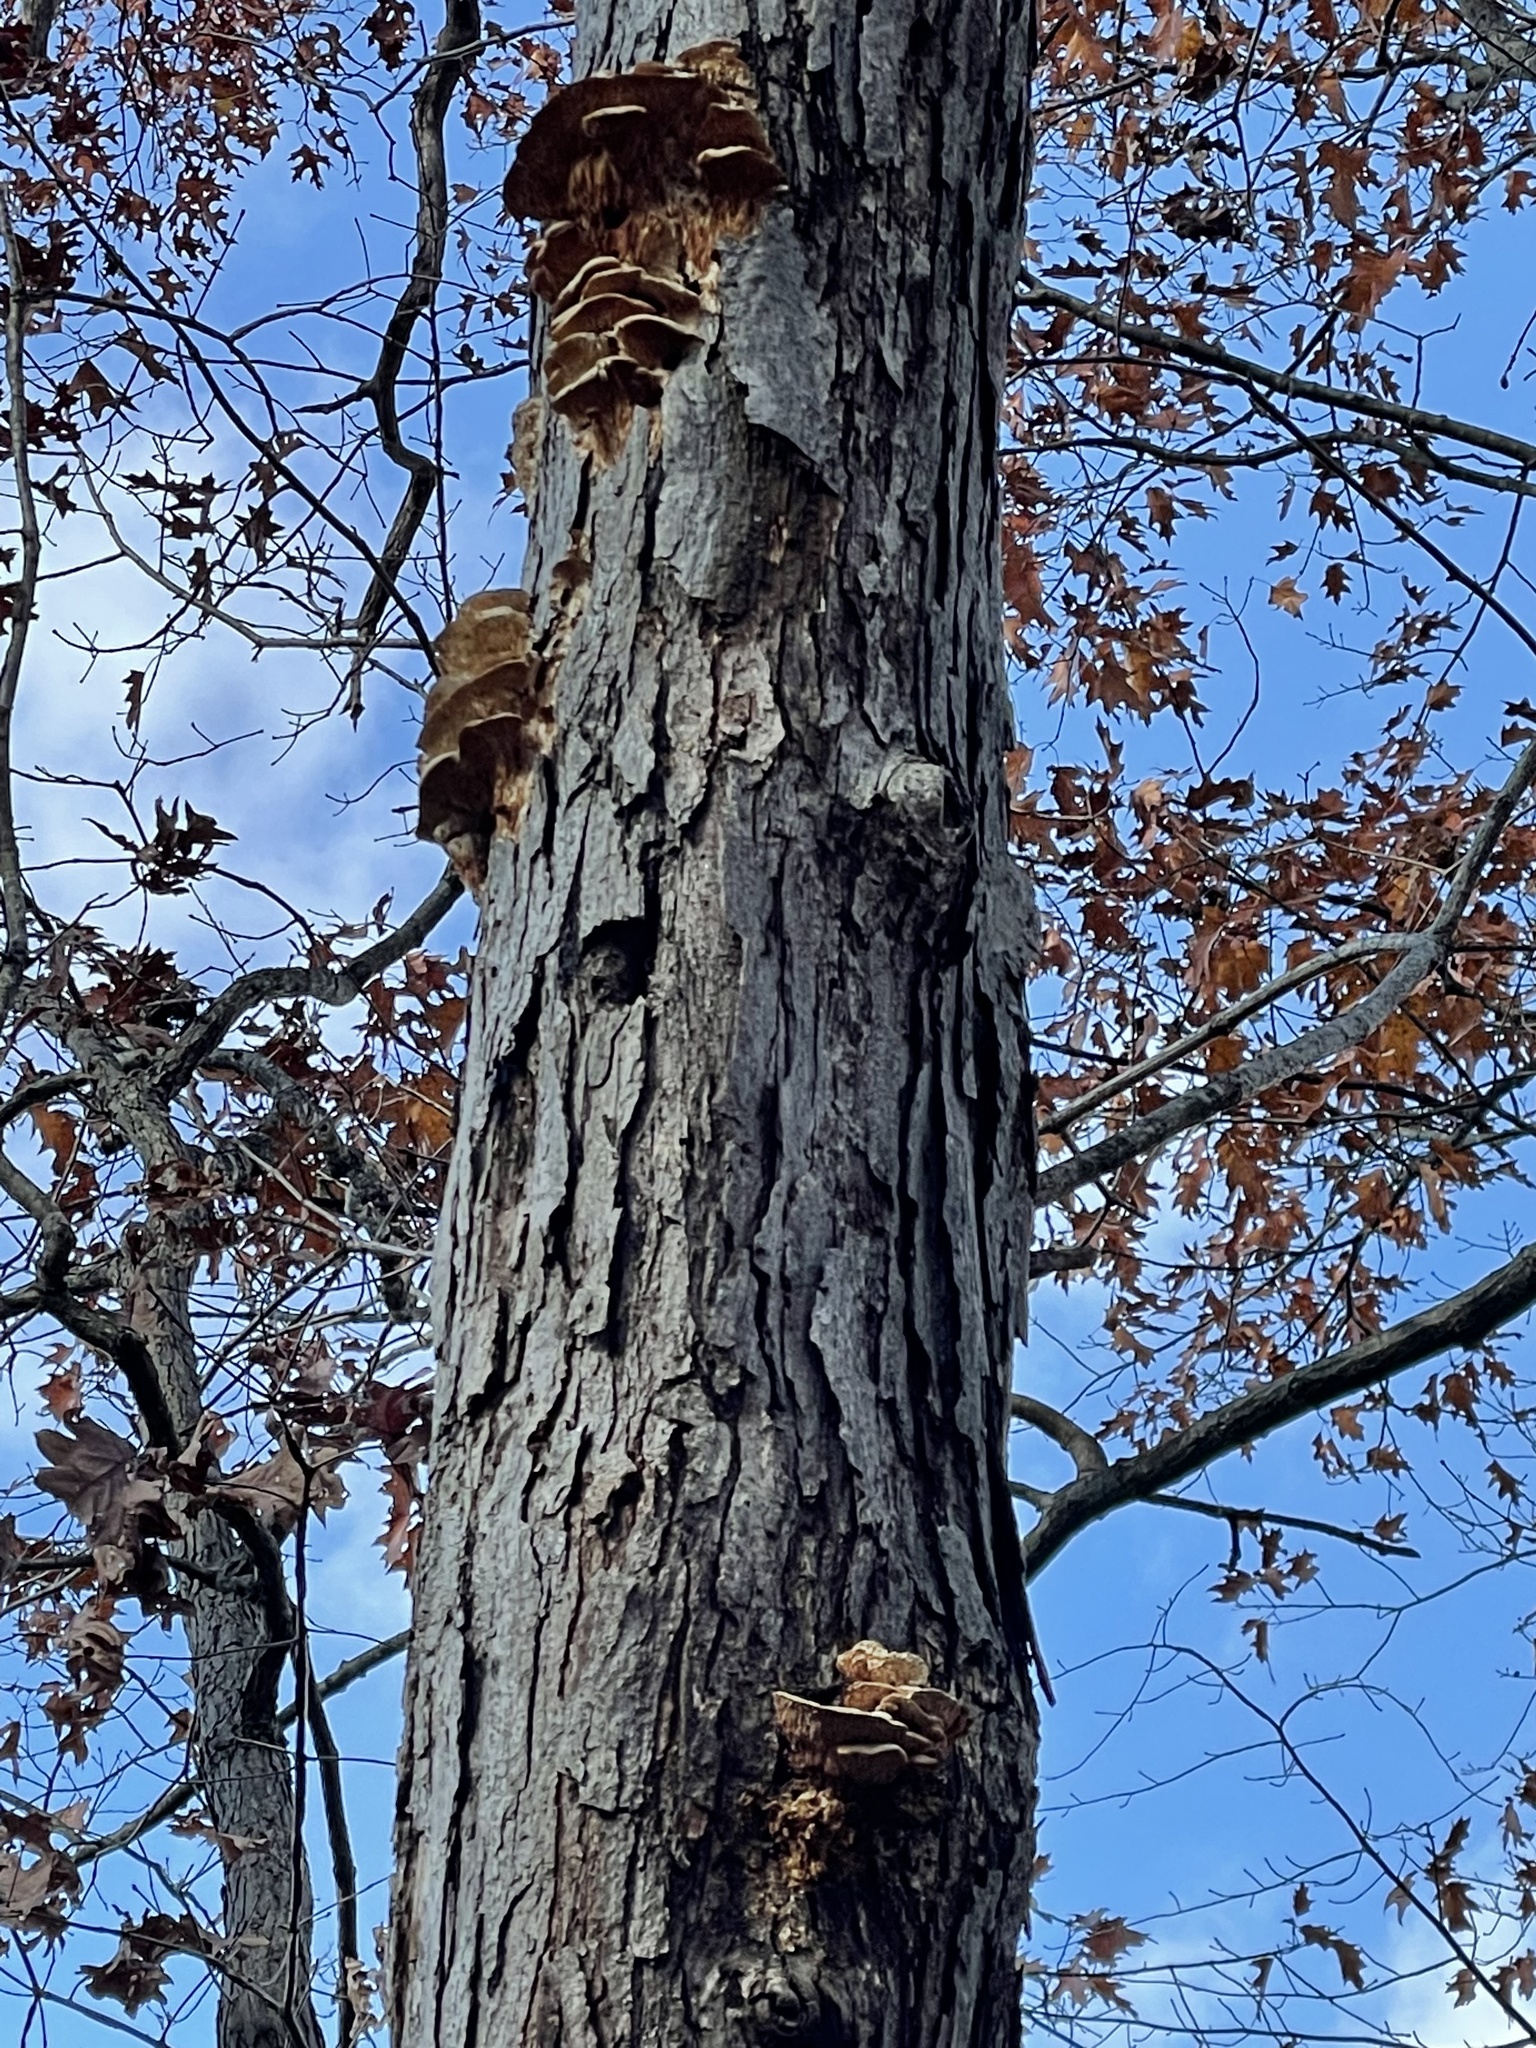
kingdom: Fungi
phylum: Basidiomycota
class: Agaricomycetes
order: Polyporales
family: Meruliaceae
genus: Irpiciporus
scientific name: Irpiciporus pachyodon
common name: Marshmallow polypore
